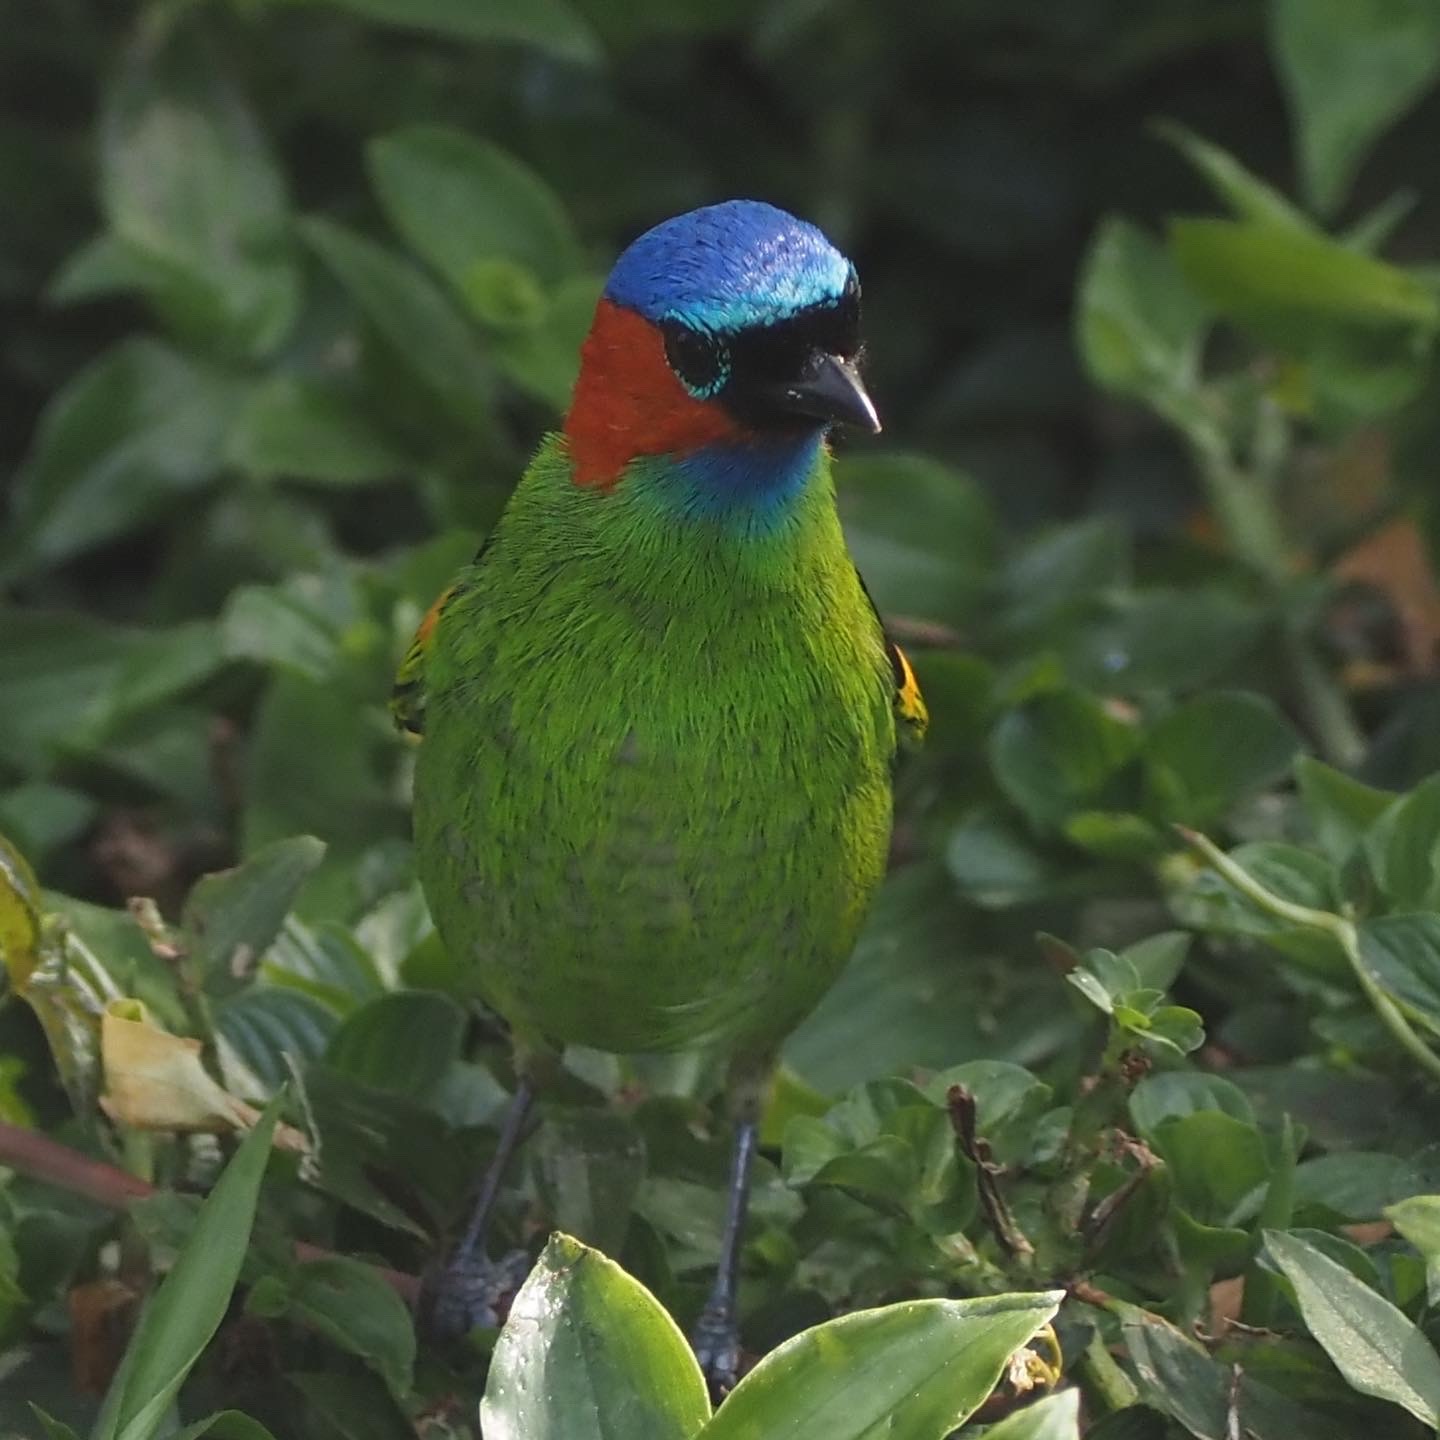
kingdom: Animalia
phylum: Chordata
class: Aves
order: Passeriformes
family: Thraupidae
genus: Tangara
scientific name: Tangara cyanocephala
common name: Red-necked tanager
